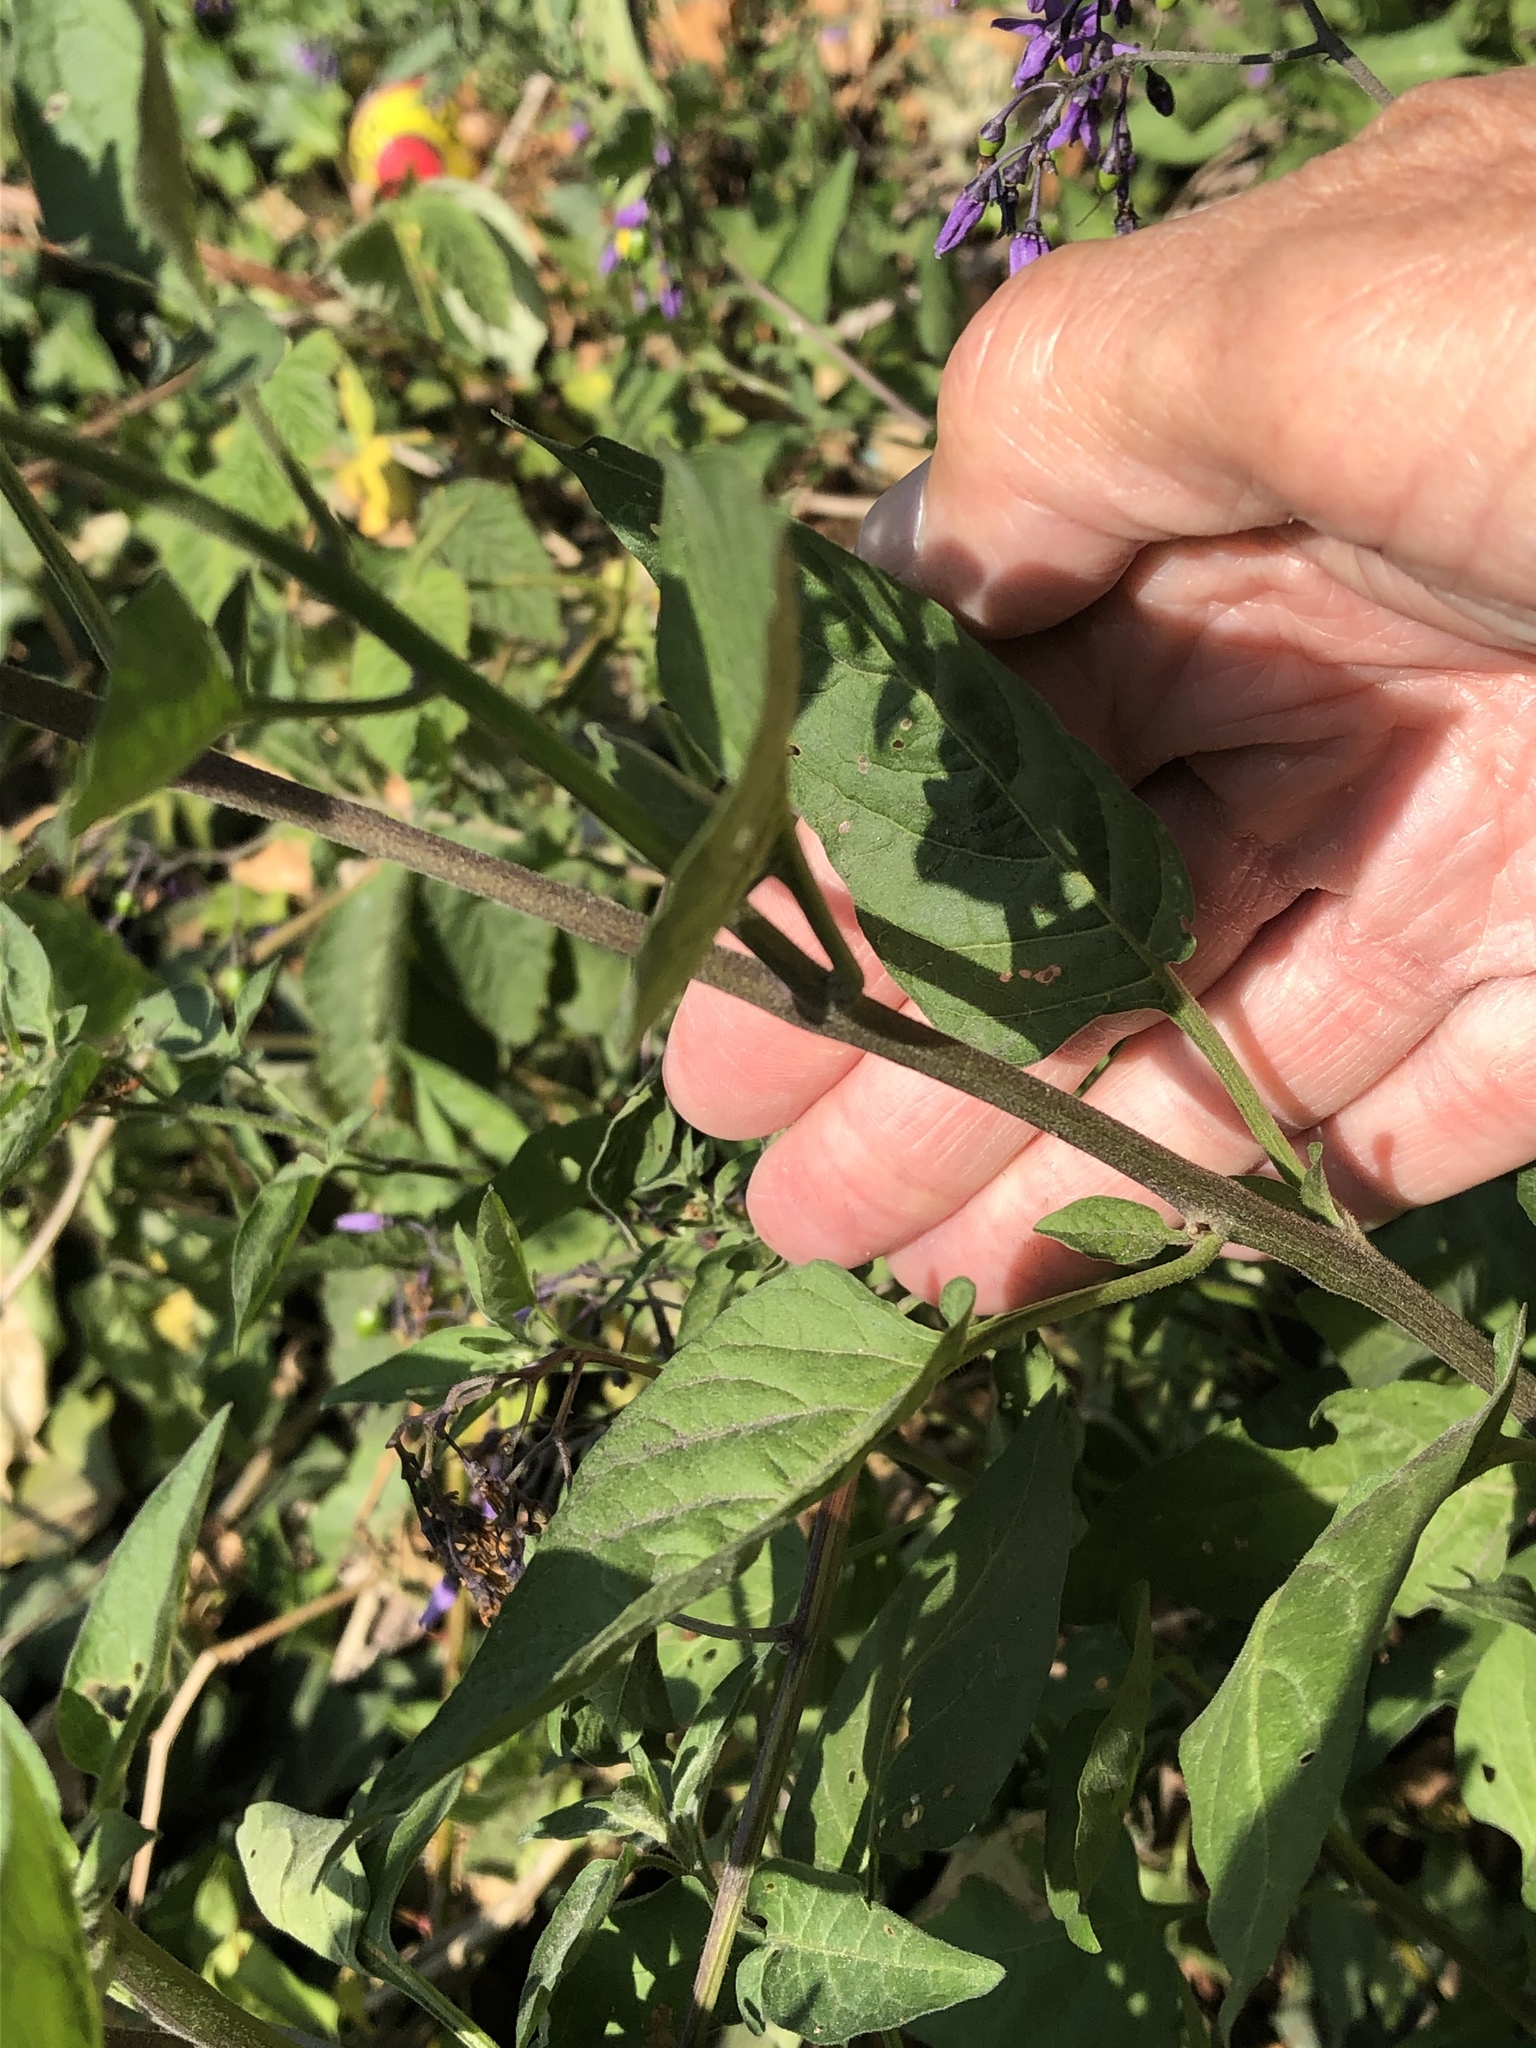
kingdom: Plantae
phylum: Tracheophyta
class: Magnoliopsida
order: Solanales
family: Solanaceae
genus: Solanum
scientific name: Solanum dulcamara
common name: Climbing nightshade
